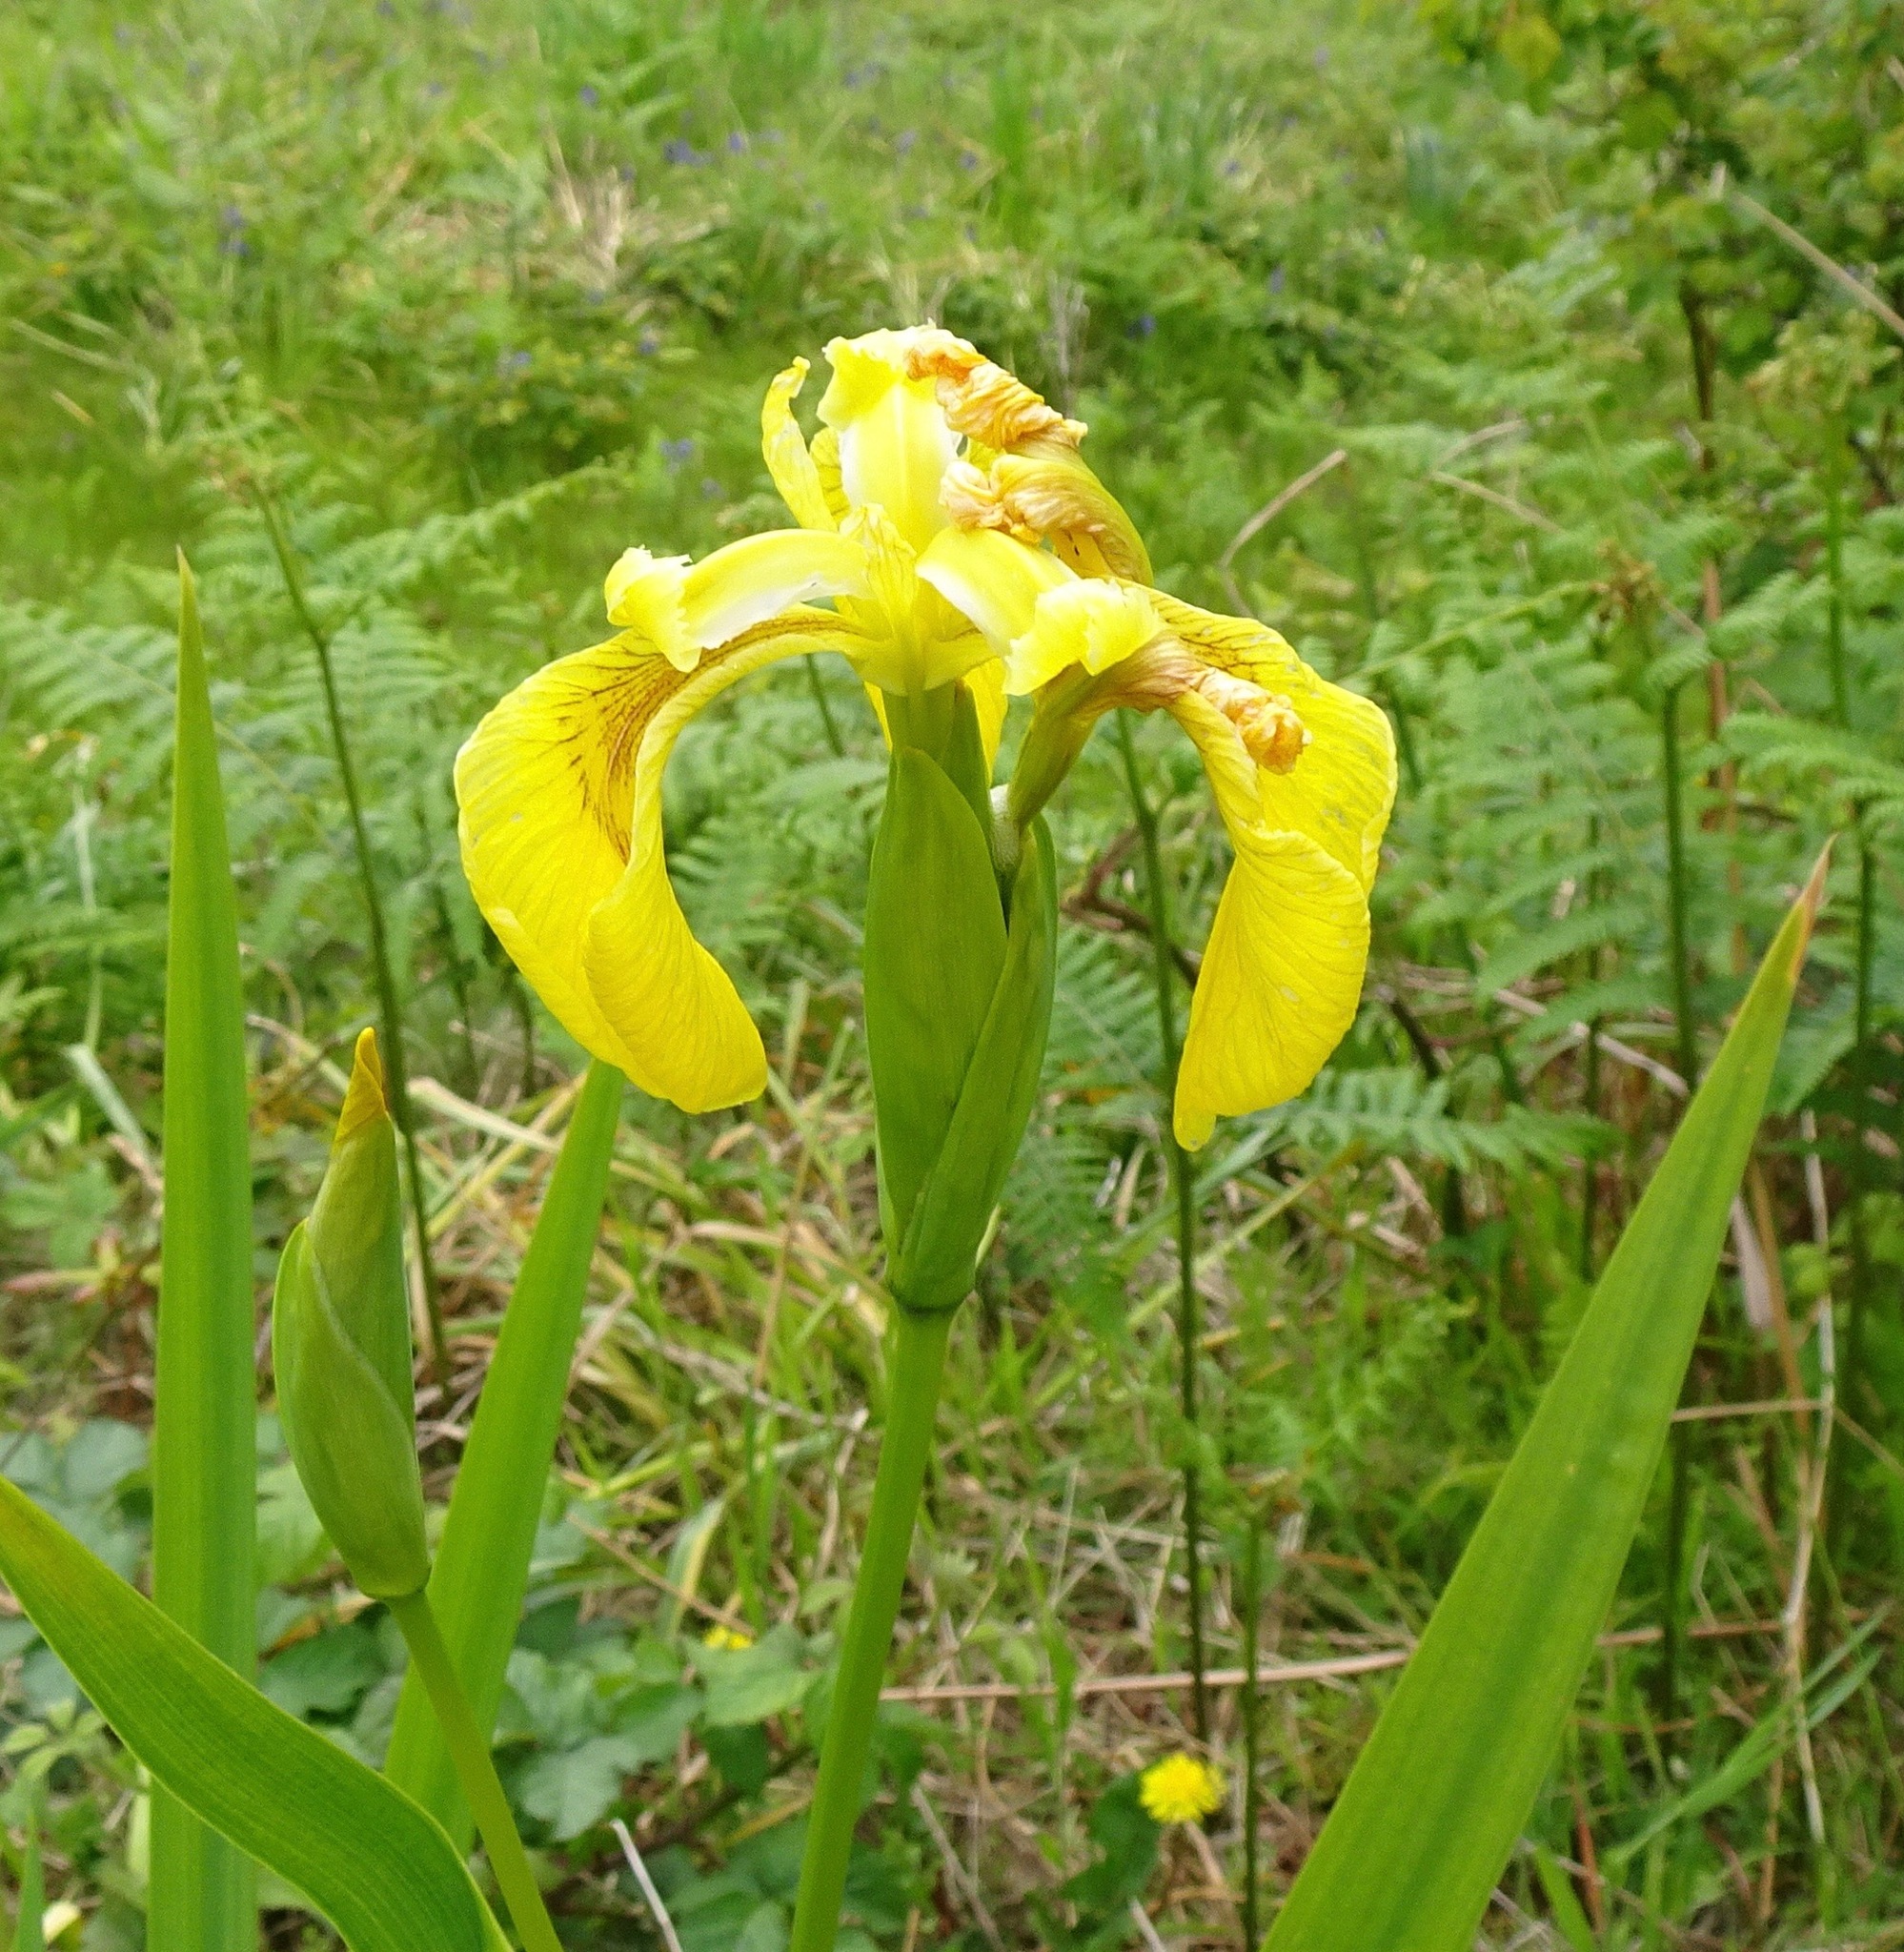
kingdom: Plantae
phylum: Tracheophyta
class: Liliopsida
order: Asparagales
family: Iridaceae
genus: Iris
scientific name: Iris pseudacorus
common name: Yellow flag
